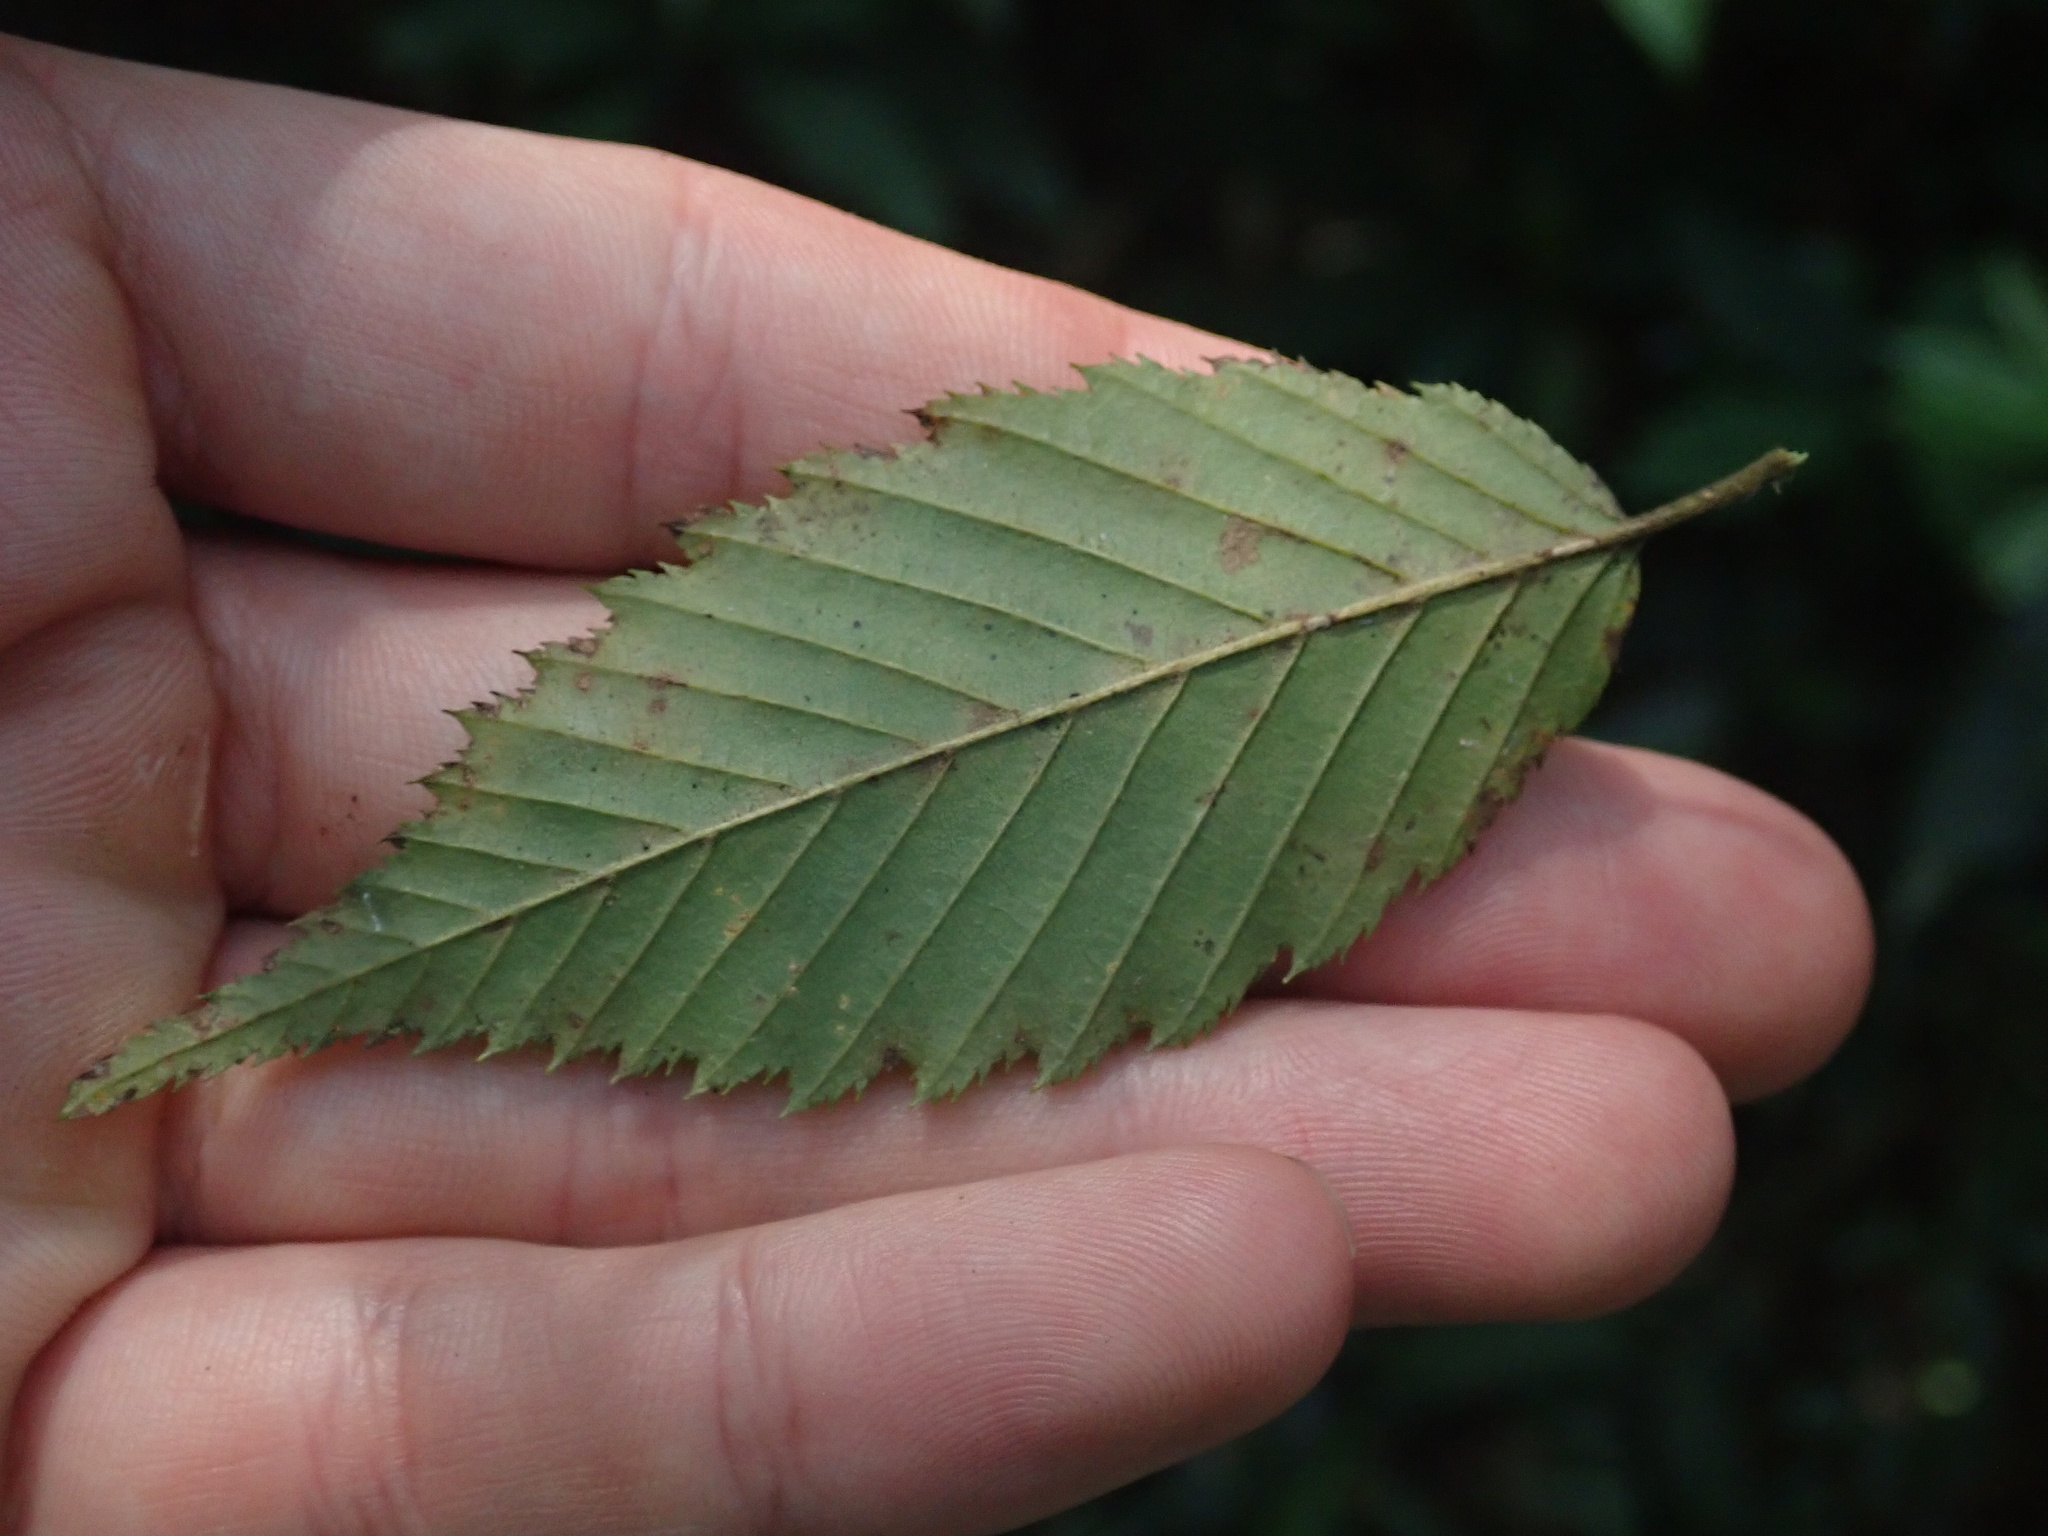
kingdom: Plantae
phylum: Tracheophyta
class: Magnoliopsida
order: Fagales
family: Betulaceae
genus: Carpinus
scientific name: Carpinus tropicalis
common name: Hornbeam
